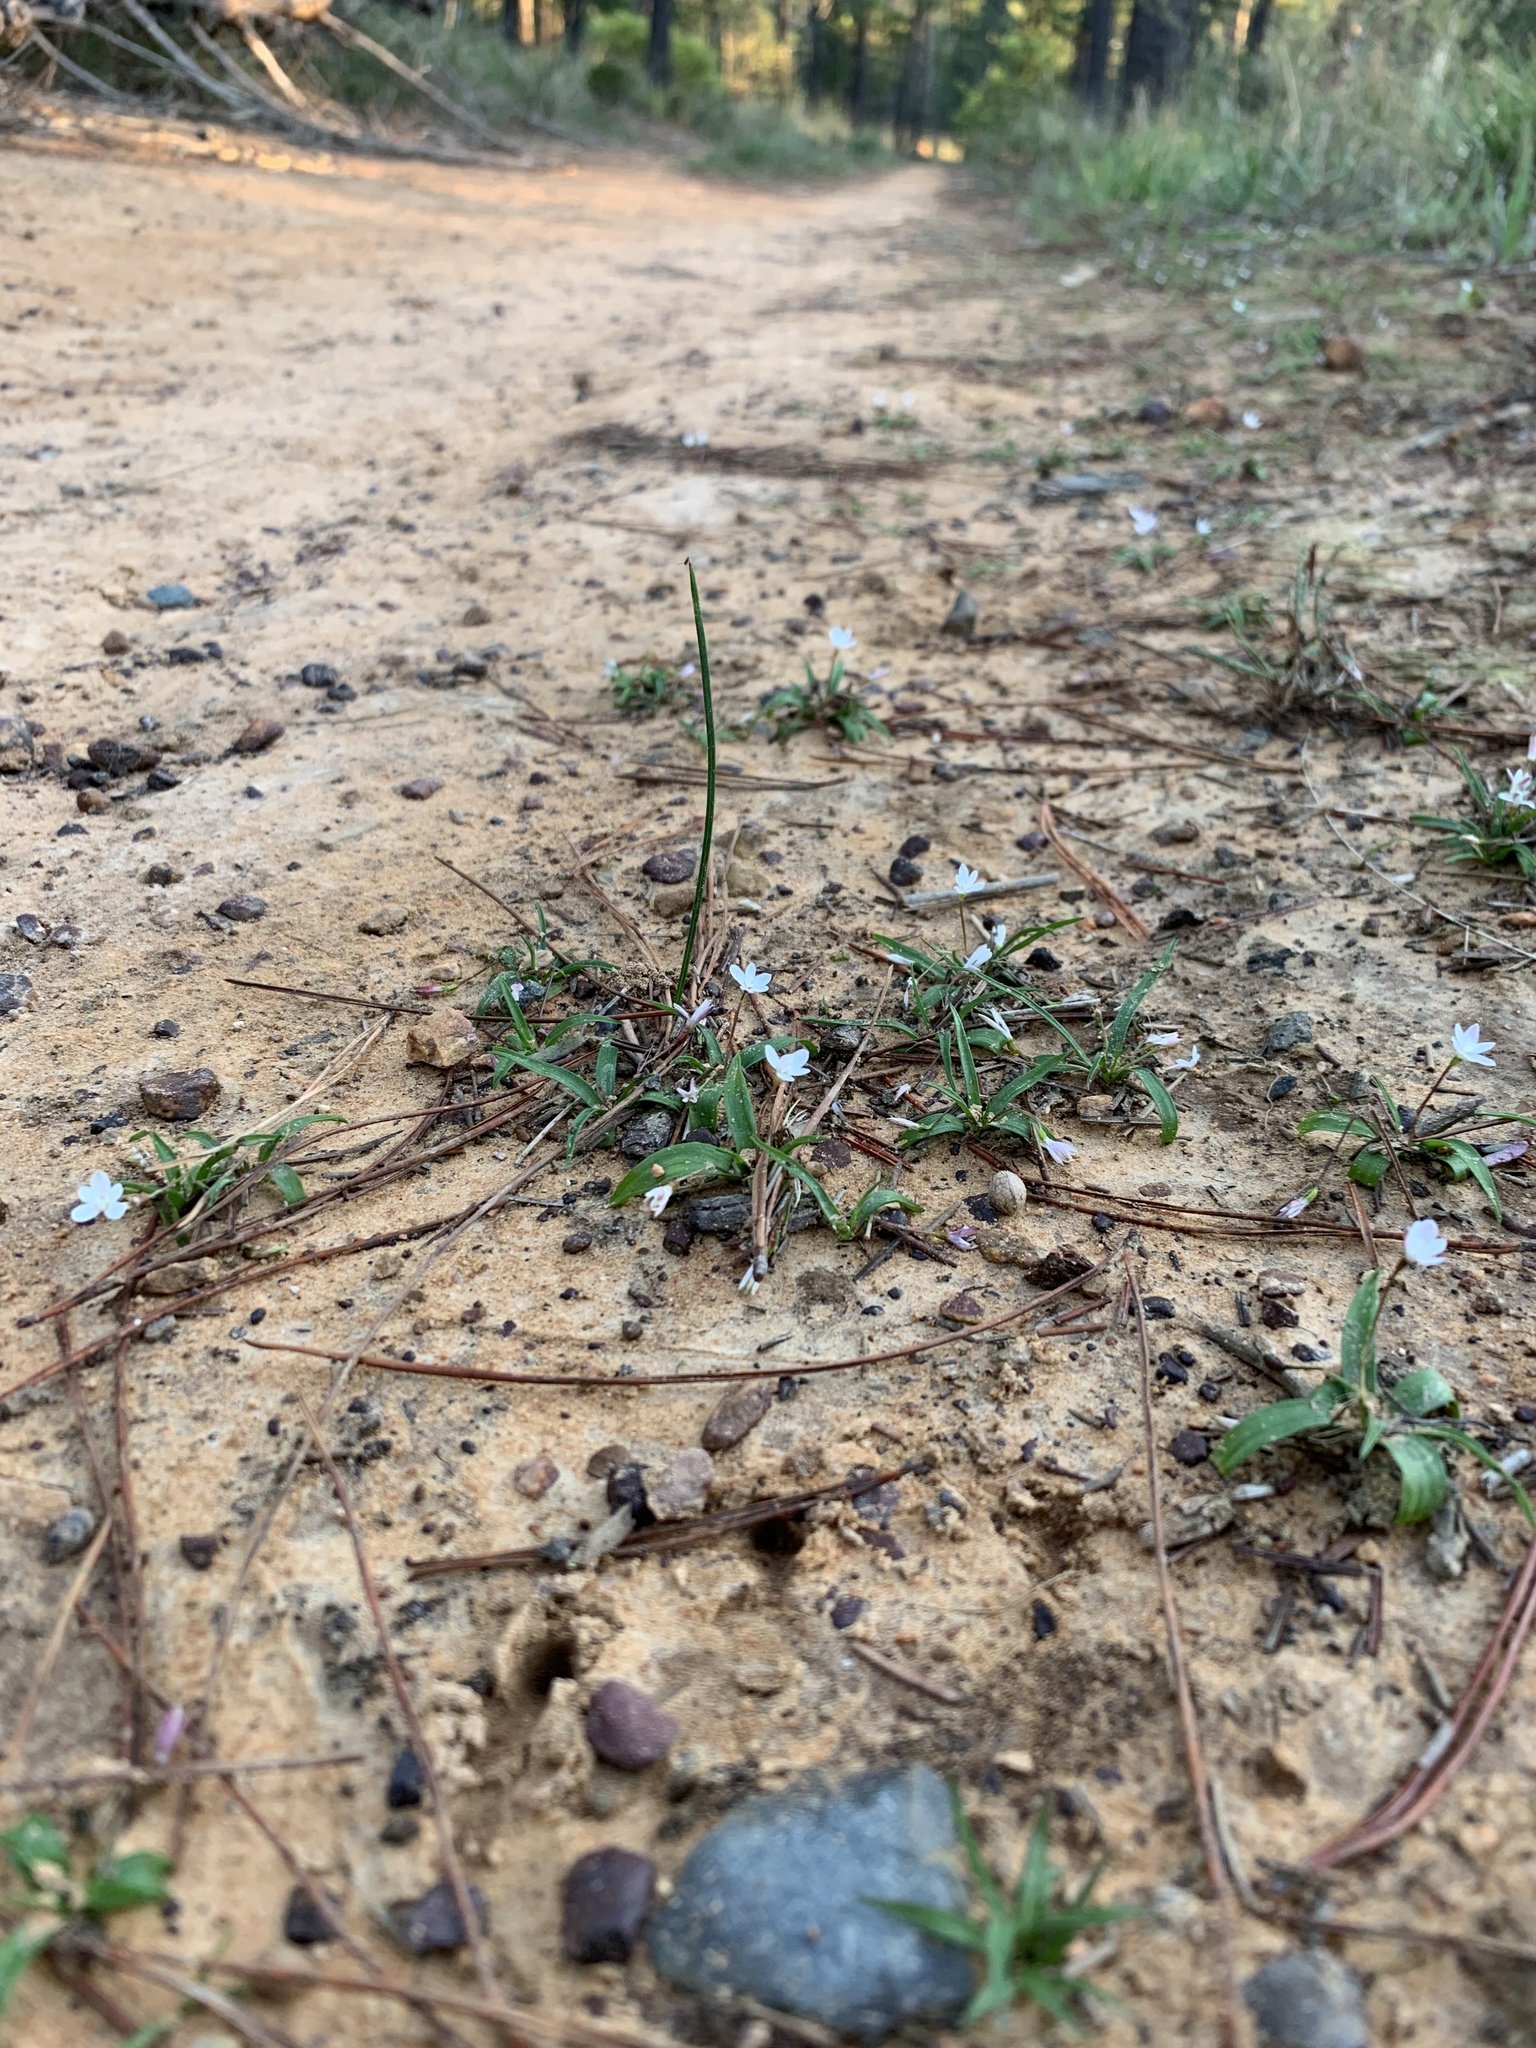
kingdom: Plantae
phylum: Tracheophyta
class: Liliopsida
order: Asparagales
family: Hypoxidaceae
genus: Pauridia
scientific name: Pauridia minuta
